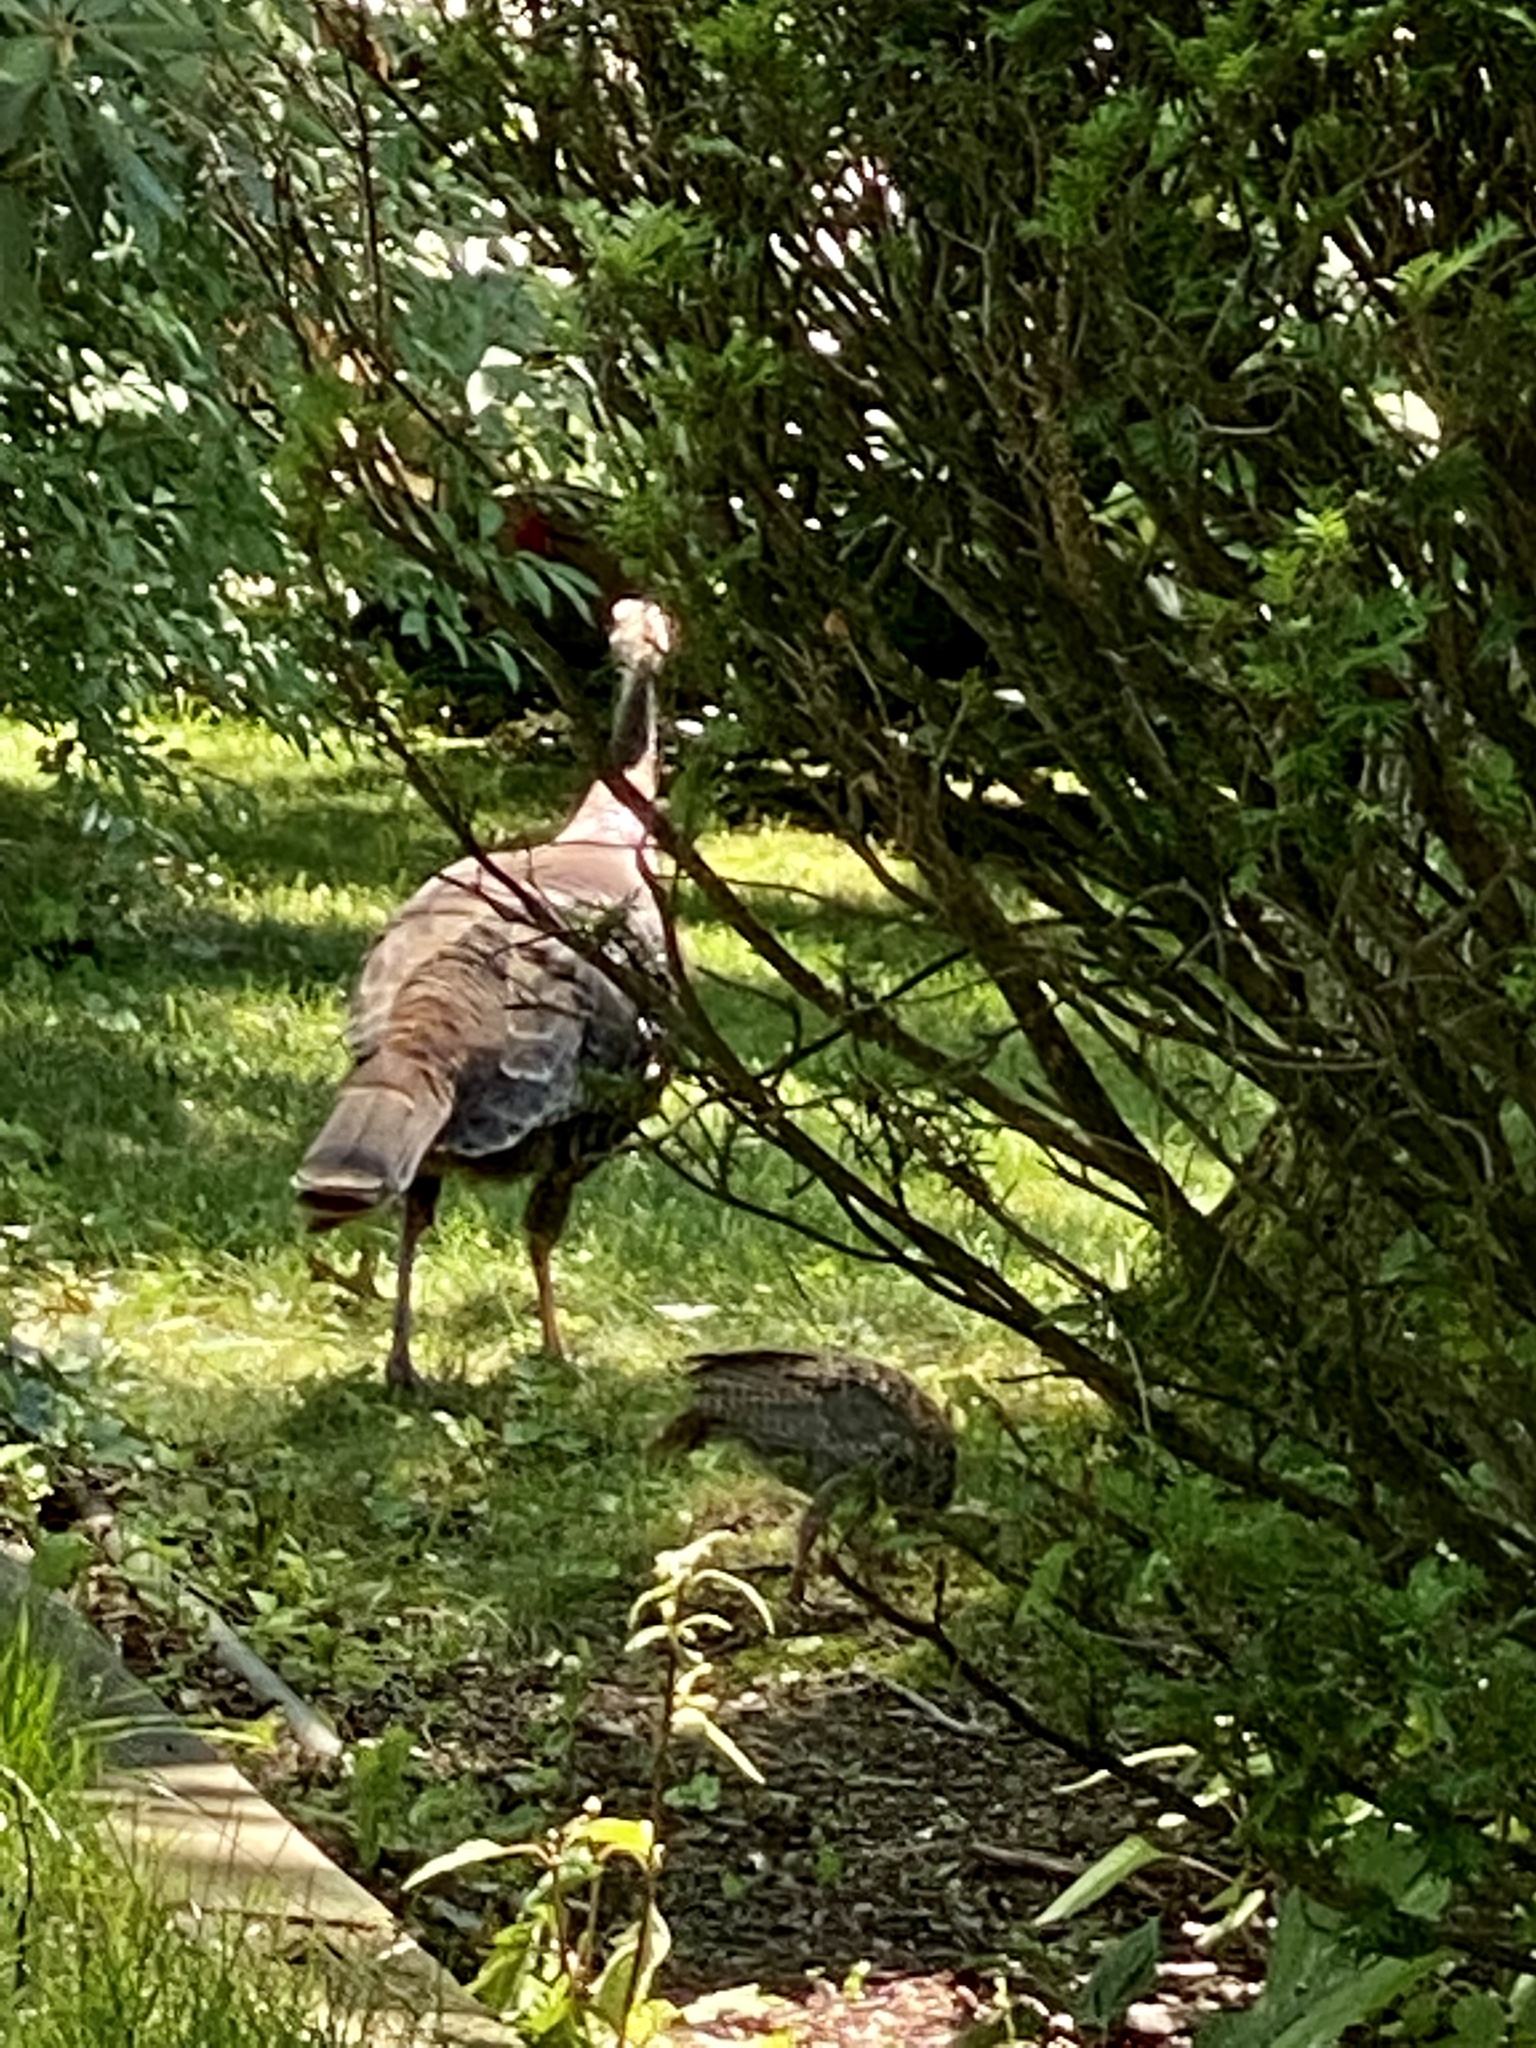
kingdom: Animalia
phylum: Chordata
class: Aves
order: Galliformes
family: Phasianidae
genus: Meleagris
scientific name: Meleagris gallopavo
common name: Wild turkey
